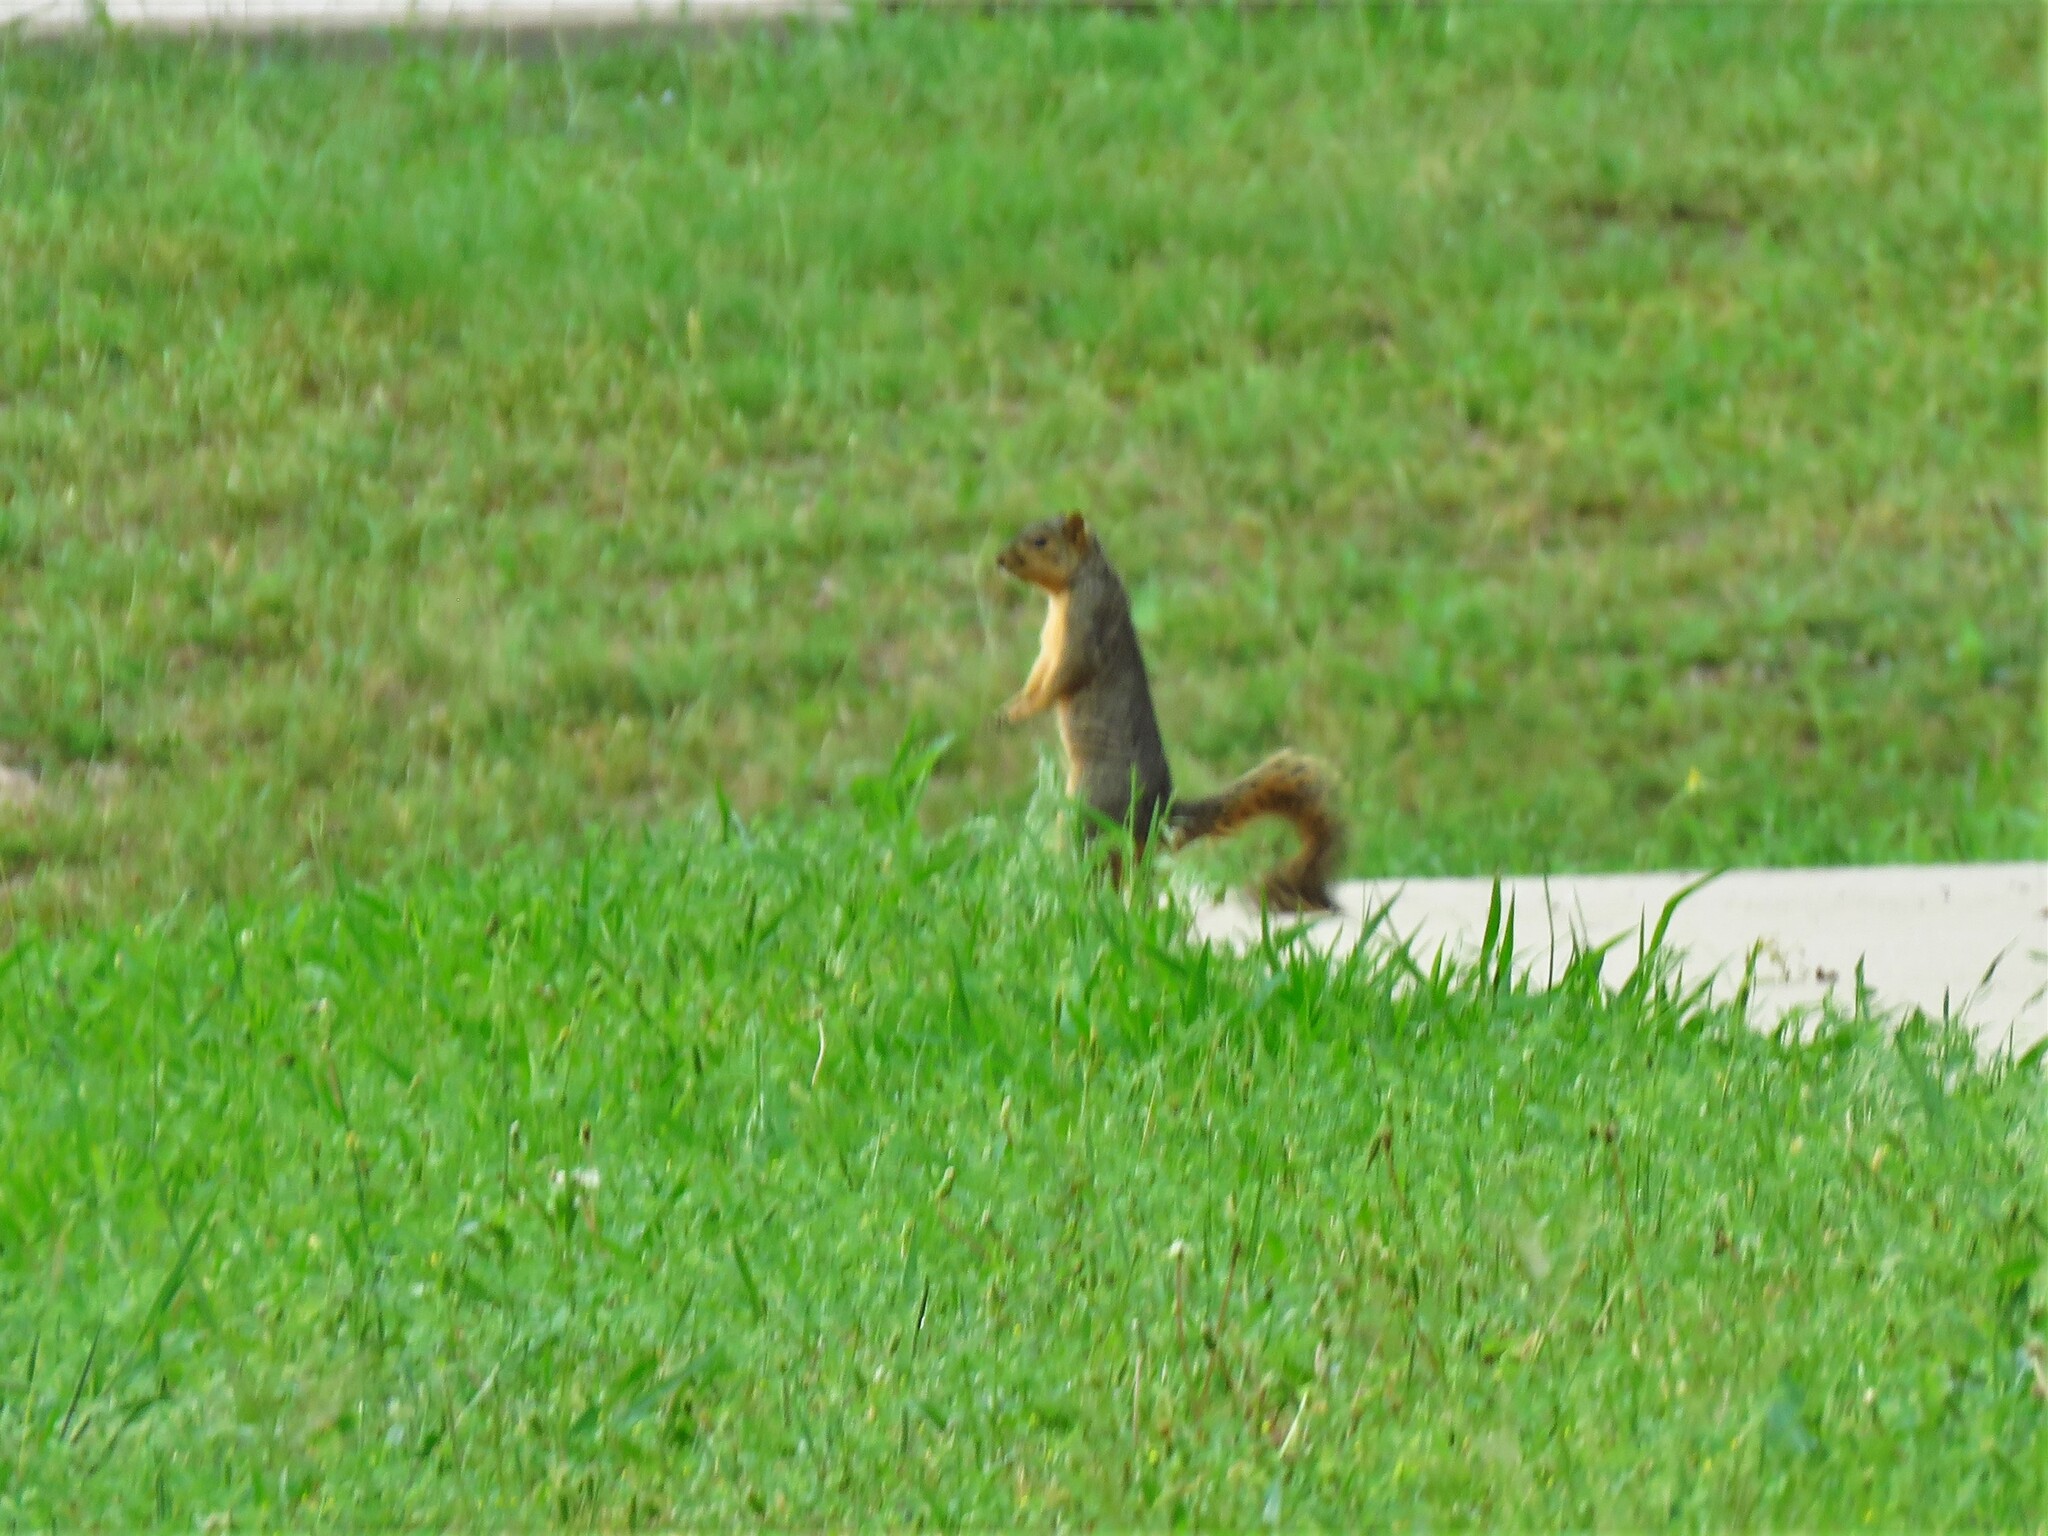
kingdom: Animalia
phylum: Chordata
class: Mammalia
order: Rodentia
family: Sciuridae
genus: Sciurus
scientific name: Sciurus niger
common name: Fox squirrel
